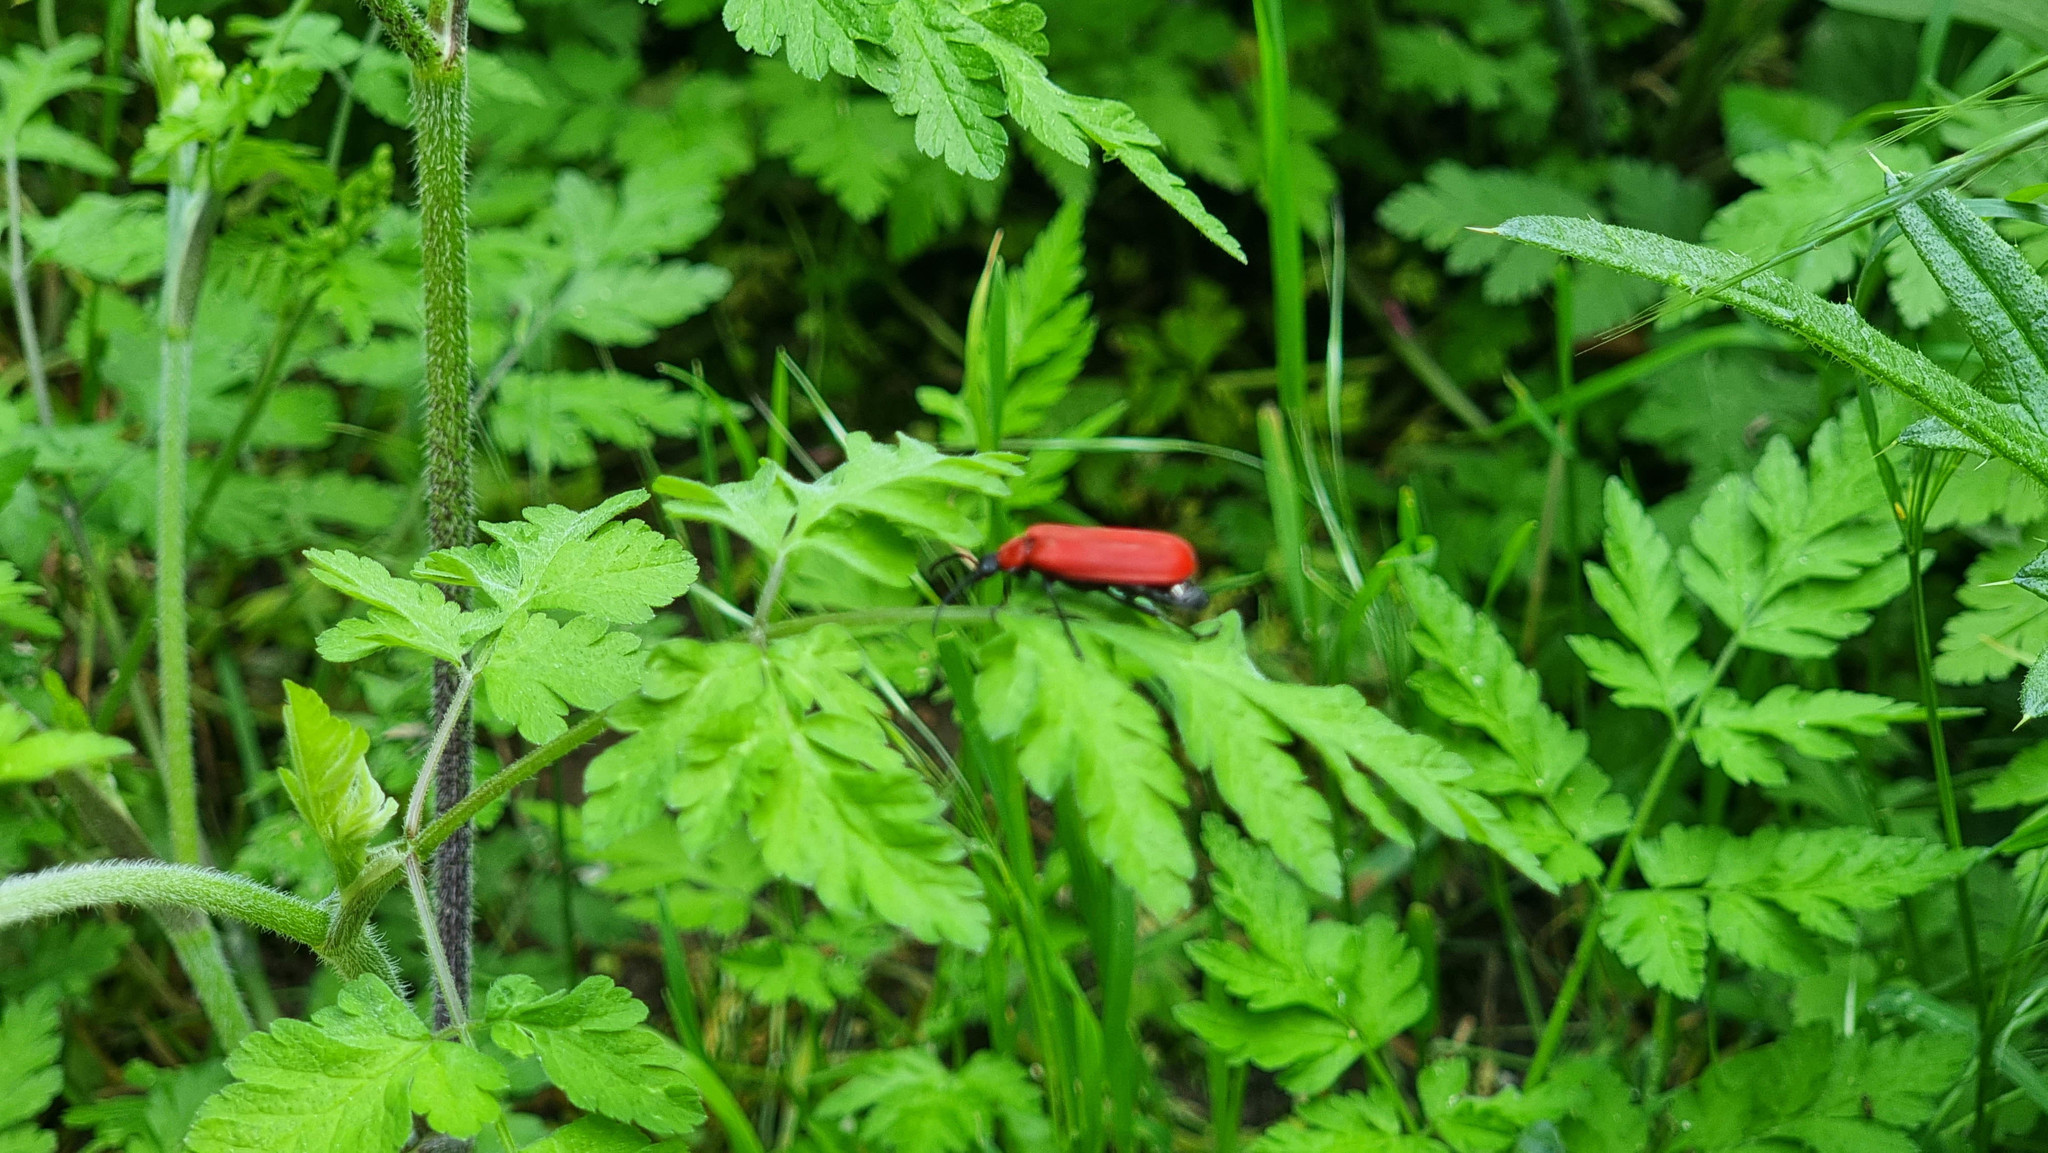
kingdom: Animalia
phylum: Arthropoda
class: Insecta
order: Coleoptera
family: Pyrochroidae
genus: Pyrochroa
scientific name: Pyrochroa coccinea
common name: Black-headed cardinal beetle
